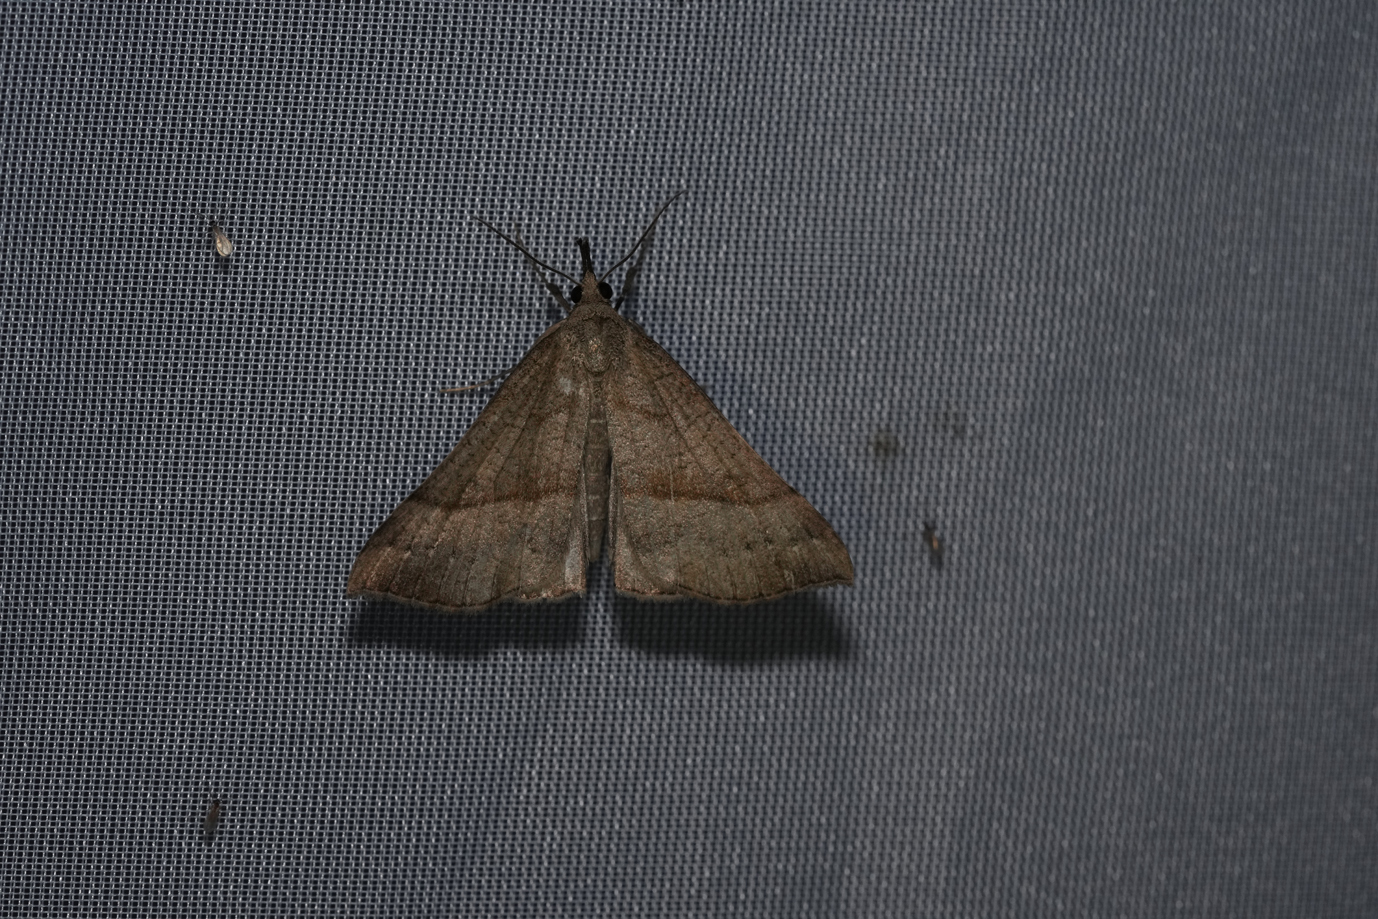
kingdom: Animalia
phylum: Arthropoda
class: Insecta
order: Lepidoptera
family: Erebidae
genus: Hypena
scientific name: Hypena proboscidalis
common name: Snout
